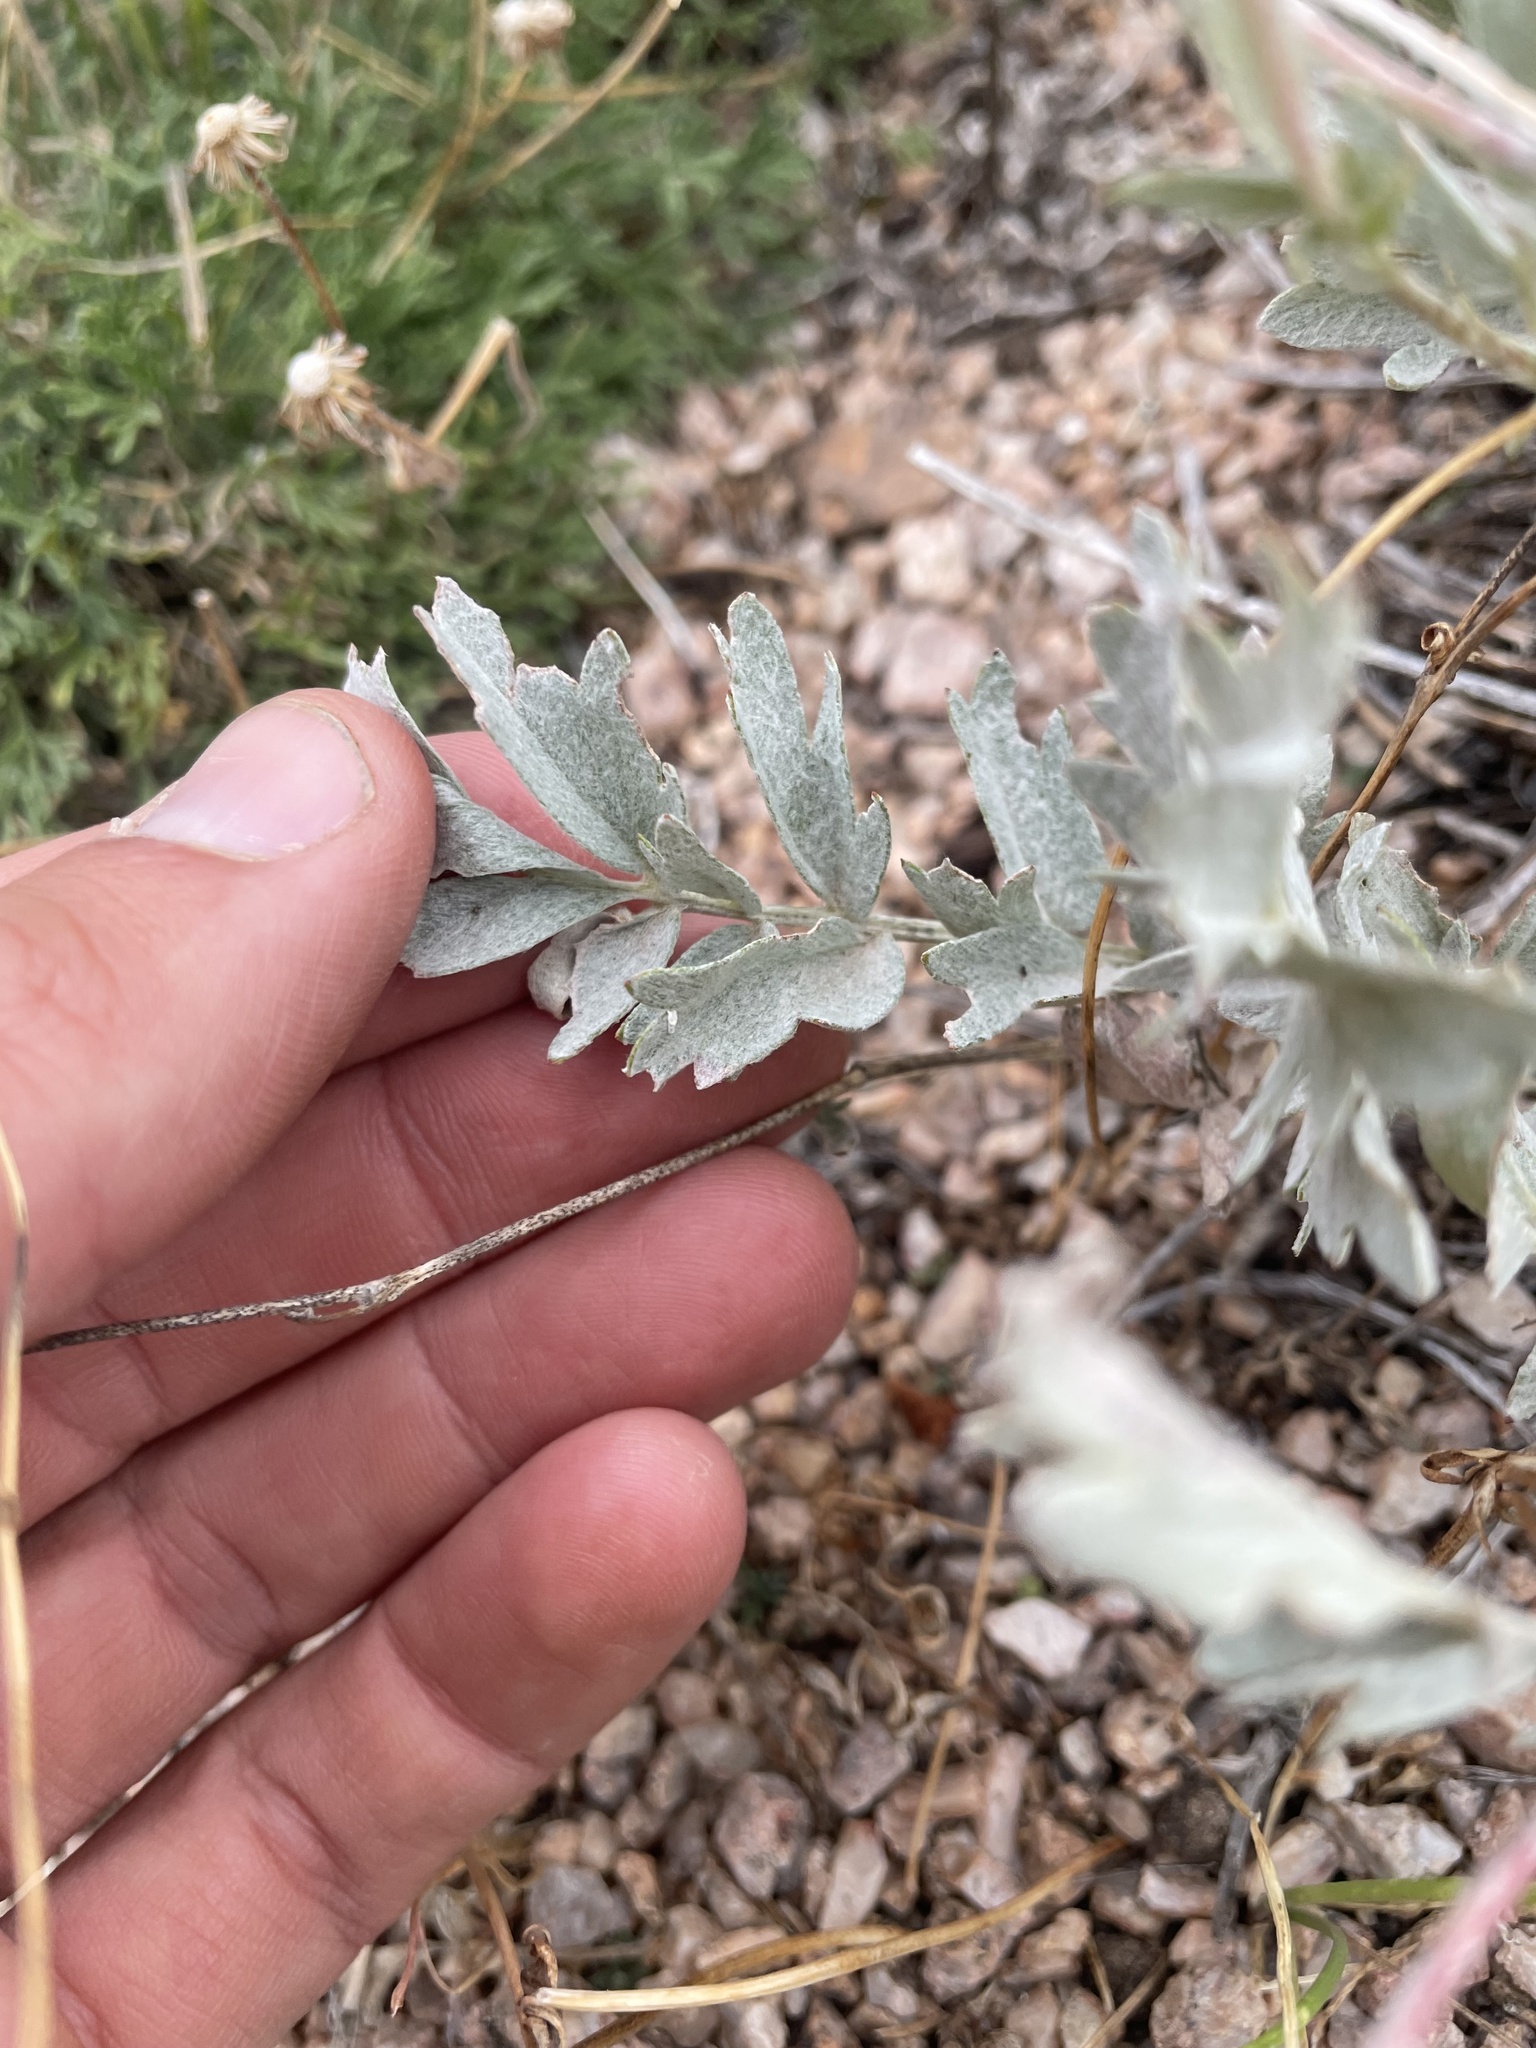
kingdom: Plantae
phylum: Tracheophyta
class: Magnoliopsida
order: Rosales
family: Rosaceae
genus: Potentilla
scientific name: Potentilla effusa
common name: Branched cinquefoil
